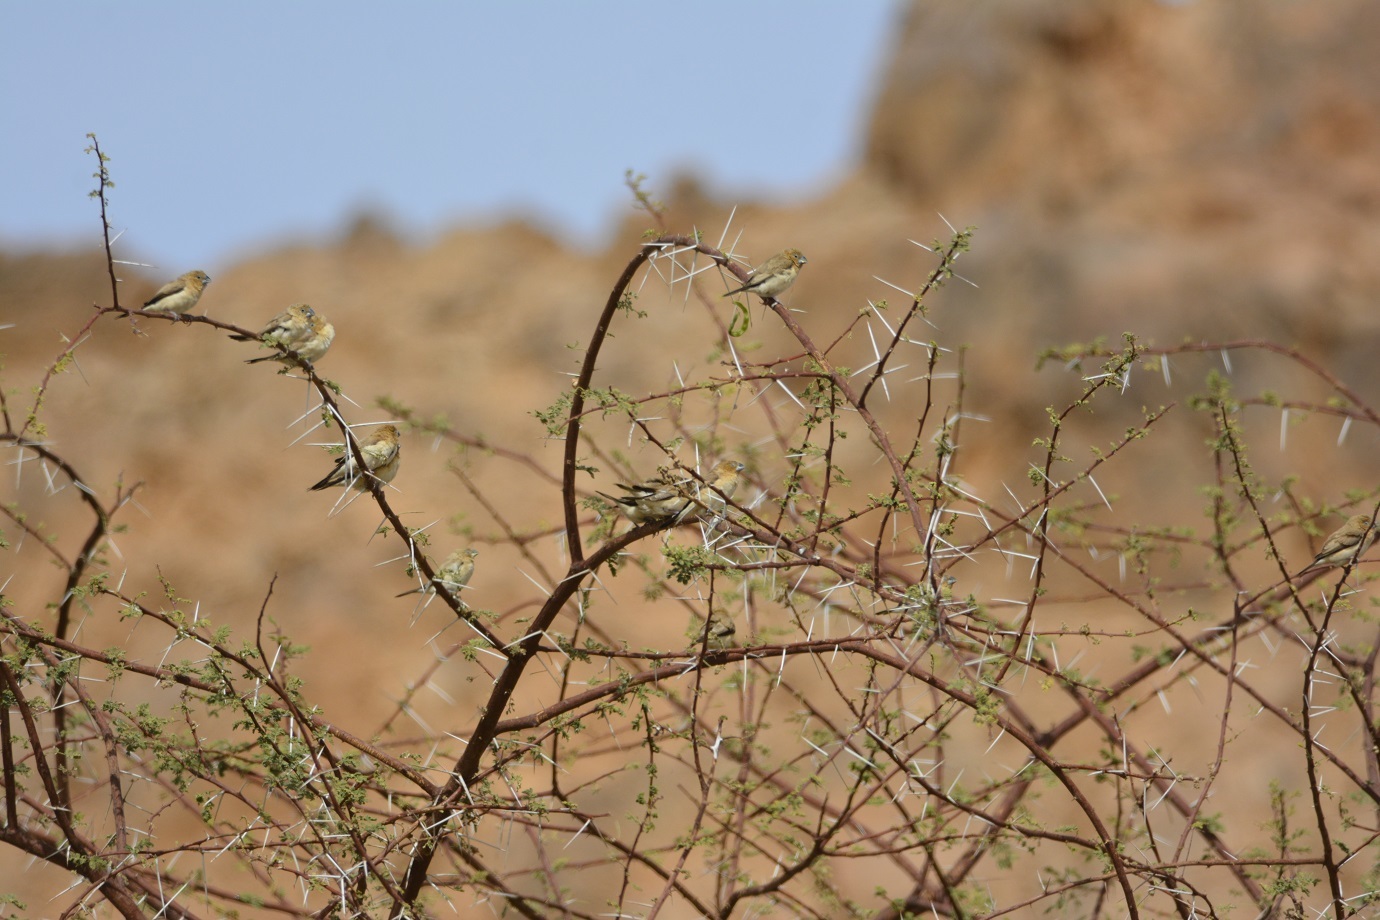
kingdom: Animalia
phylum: Chordata
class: Aves
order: Passeriformes
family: Estrildidae
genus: Euodice
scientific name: Euodice cantans
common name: African silverbill
